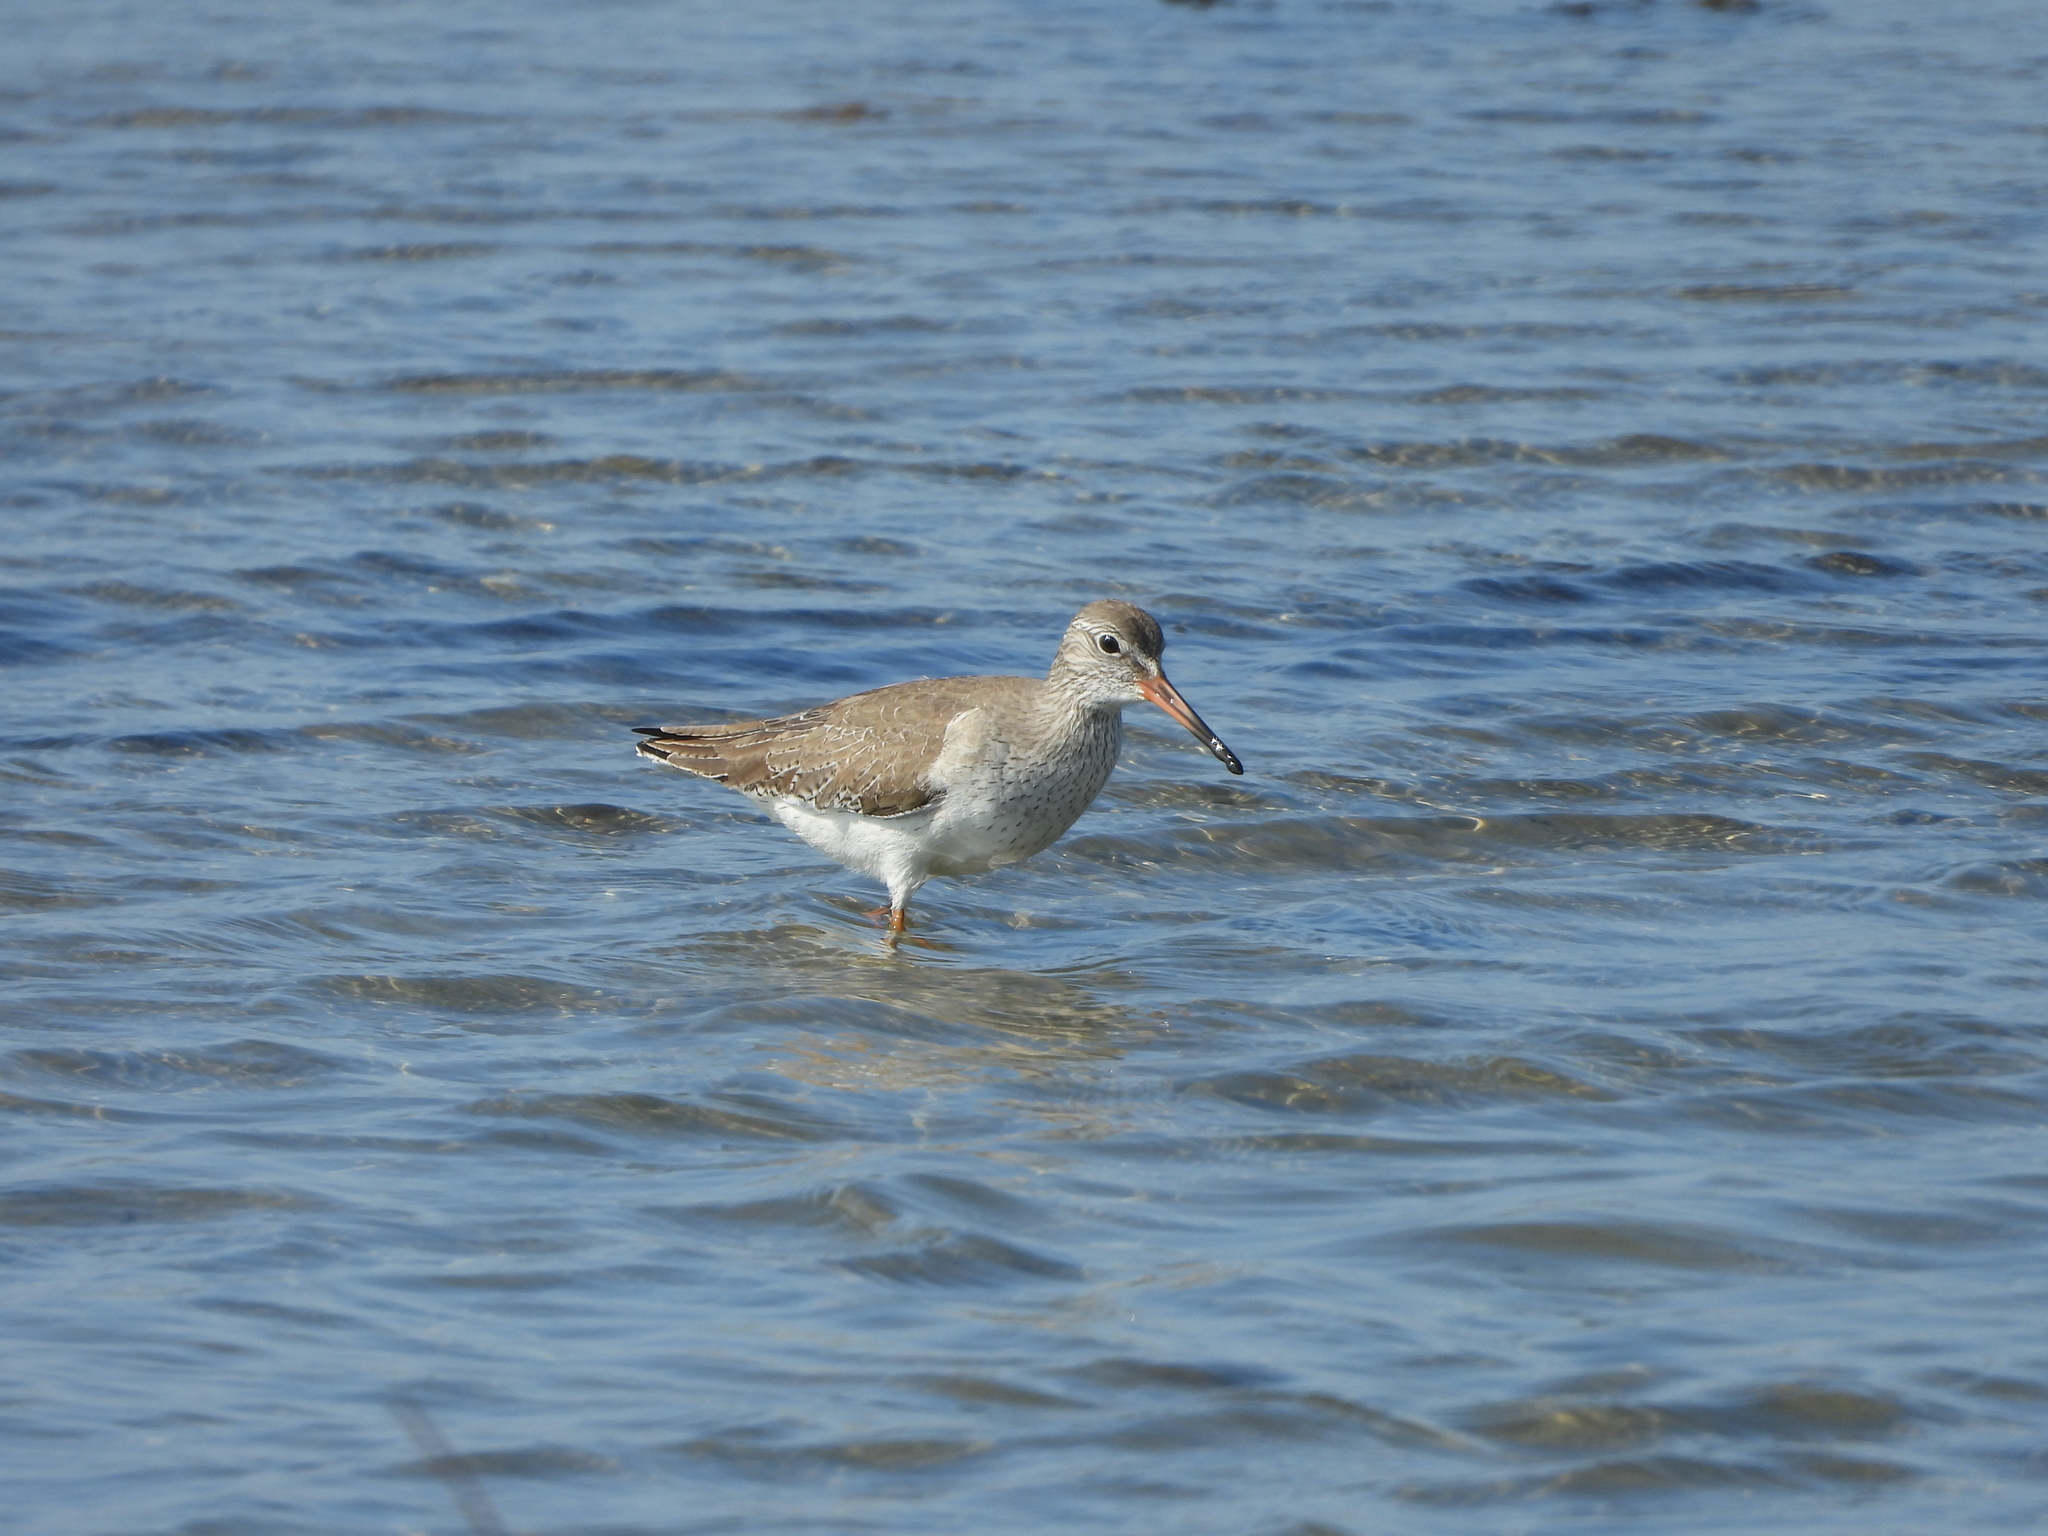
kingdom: Animalia
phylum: Chordata
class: Aves
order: Charadriiformes
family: Scolopacidae
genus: Tringa
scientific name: Tringa totanus
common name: Common redshank
